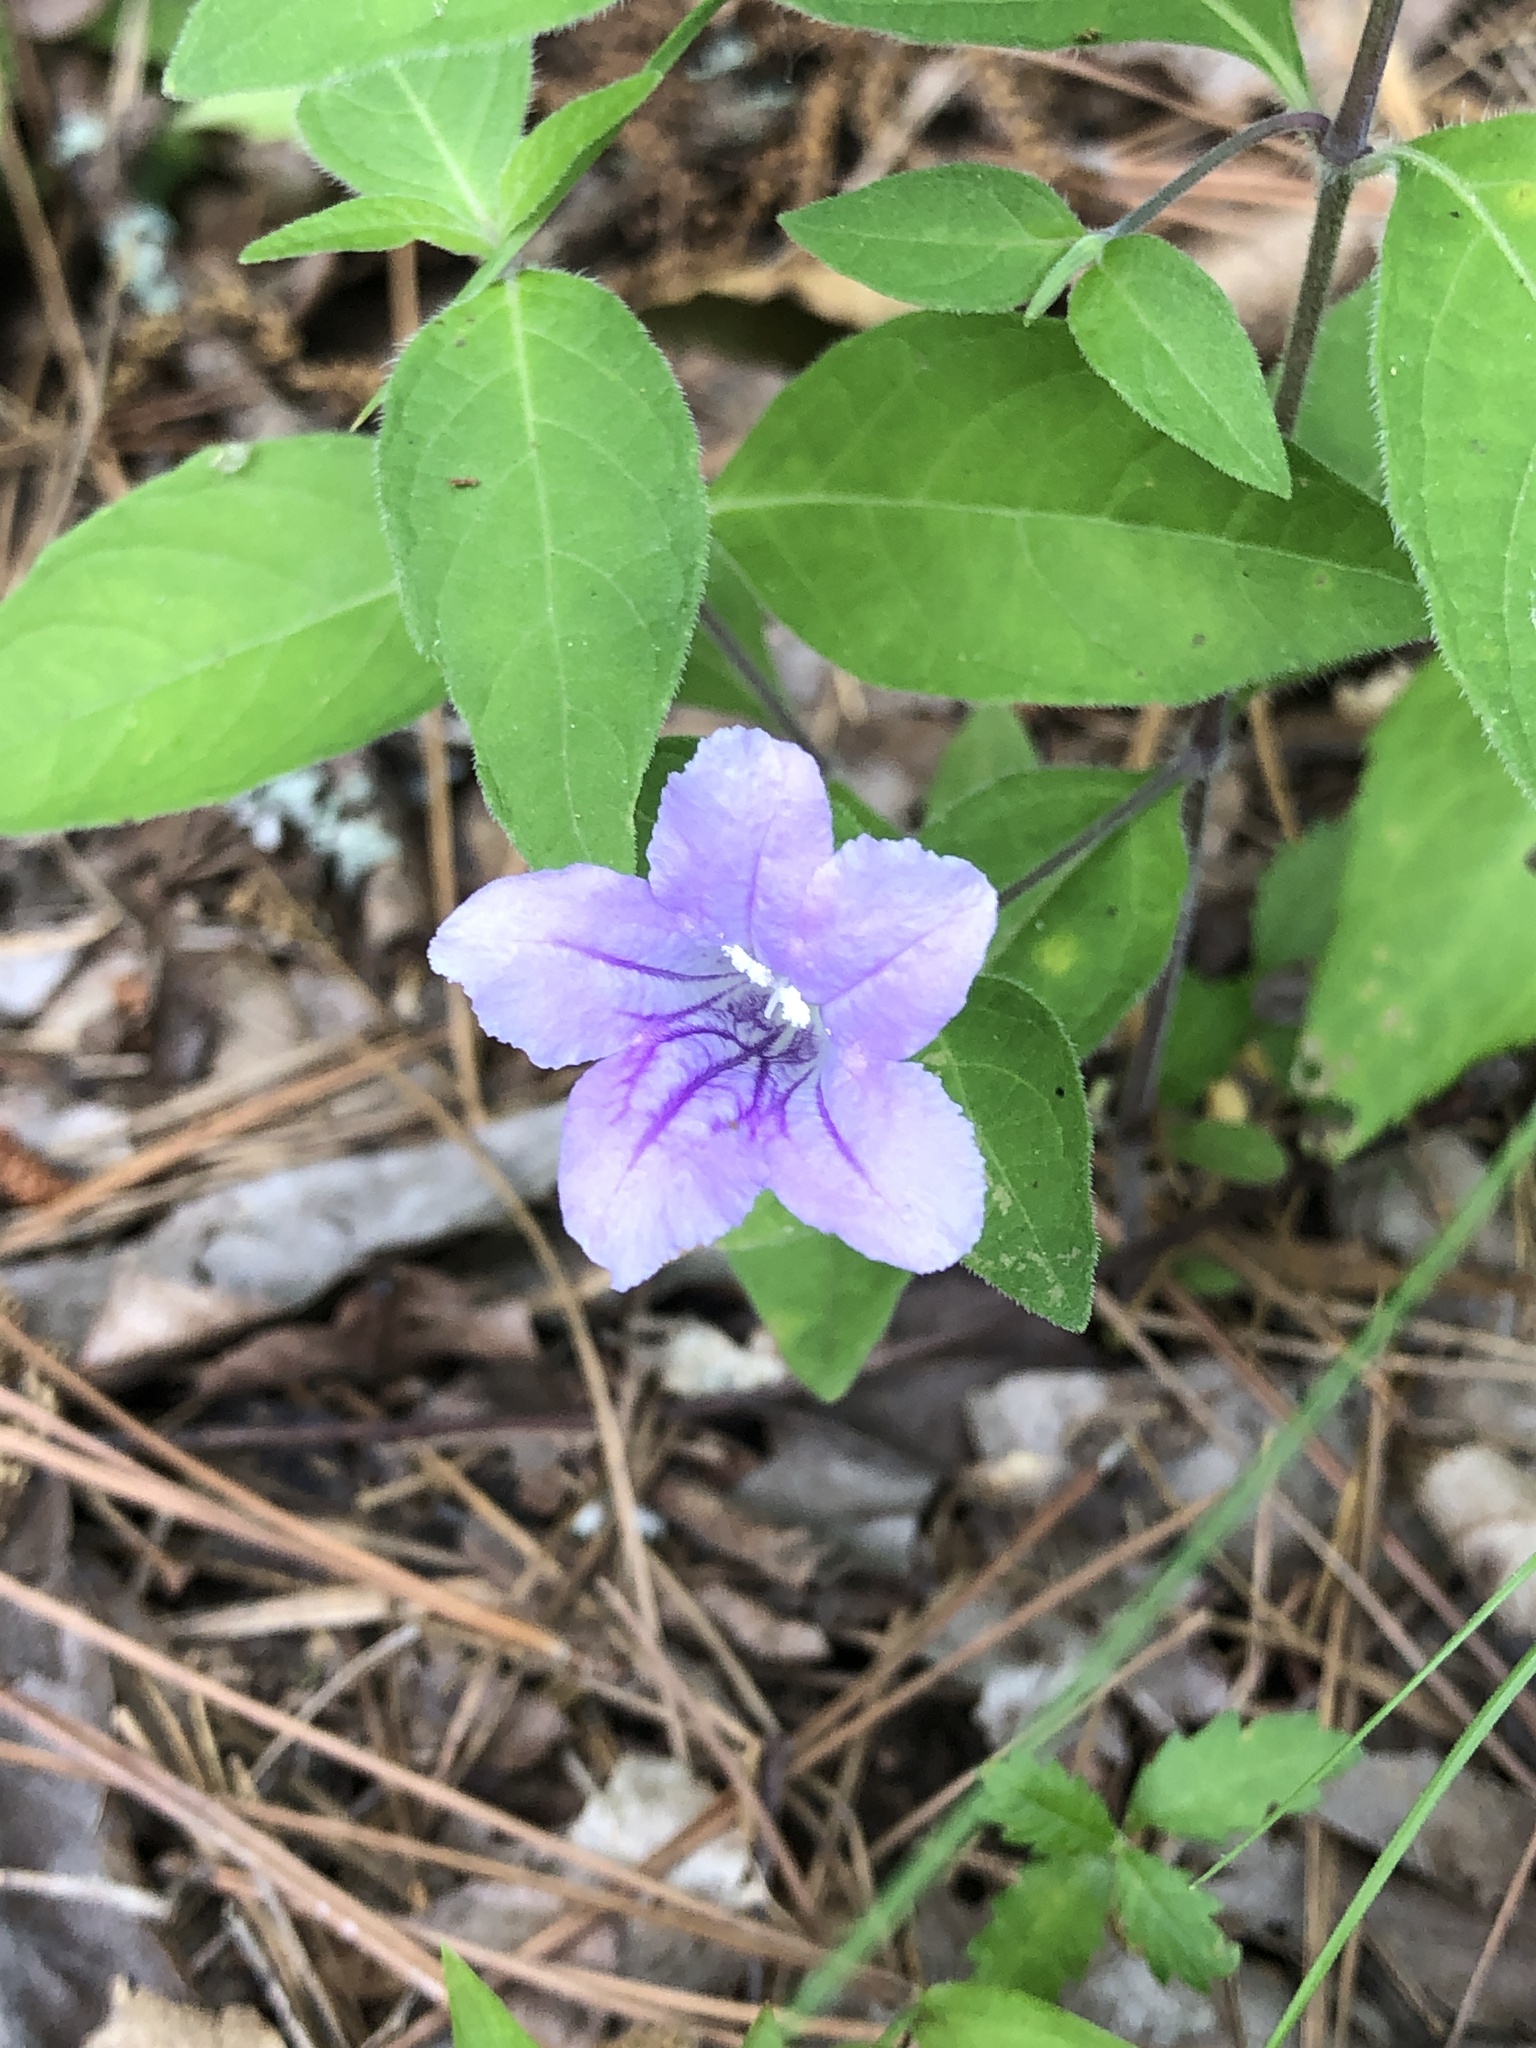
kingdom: Plantae
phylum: Tracheophyta
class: Magnoliopsida
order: Lamiales
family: Acanthaceae
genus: Ruellia
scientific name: Ruellia pedunculata
